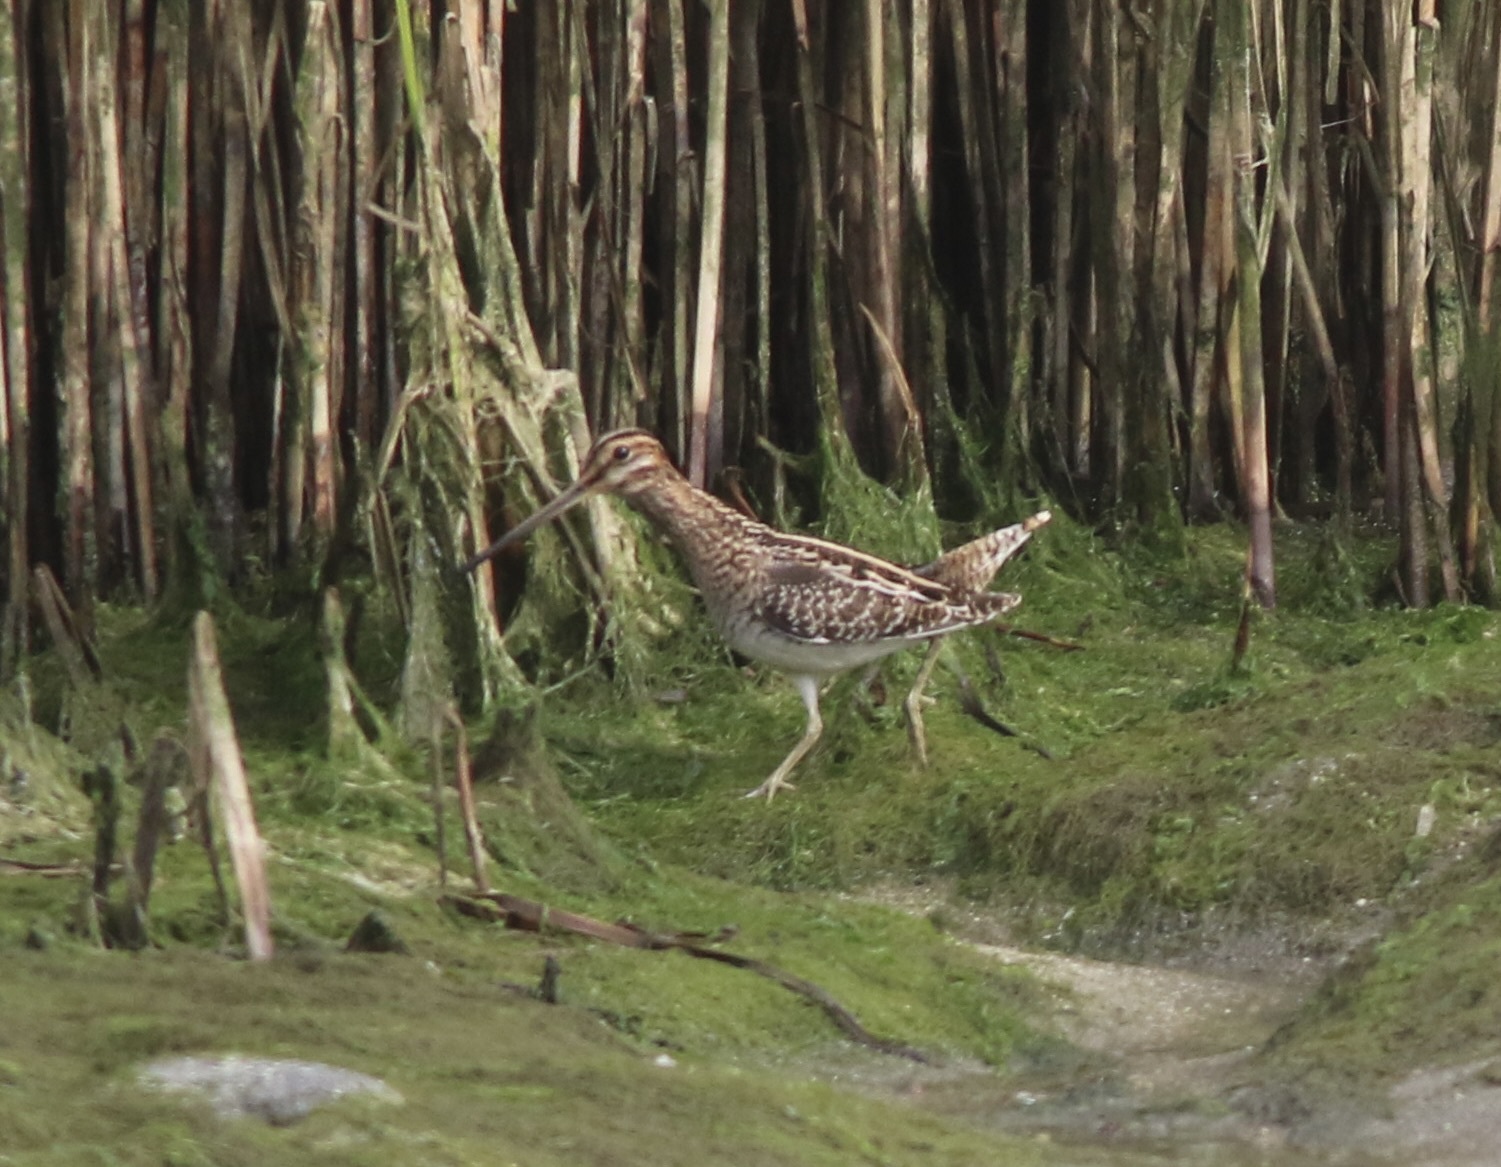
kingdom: Animalia
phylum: Chordata
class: Aves
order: Charadriiformes
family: Scolopacidae
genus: Gallinago
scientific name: Gallinago delicata
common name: Wilson's snipe
